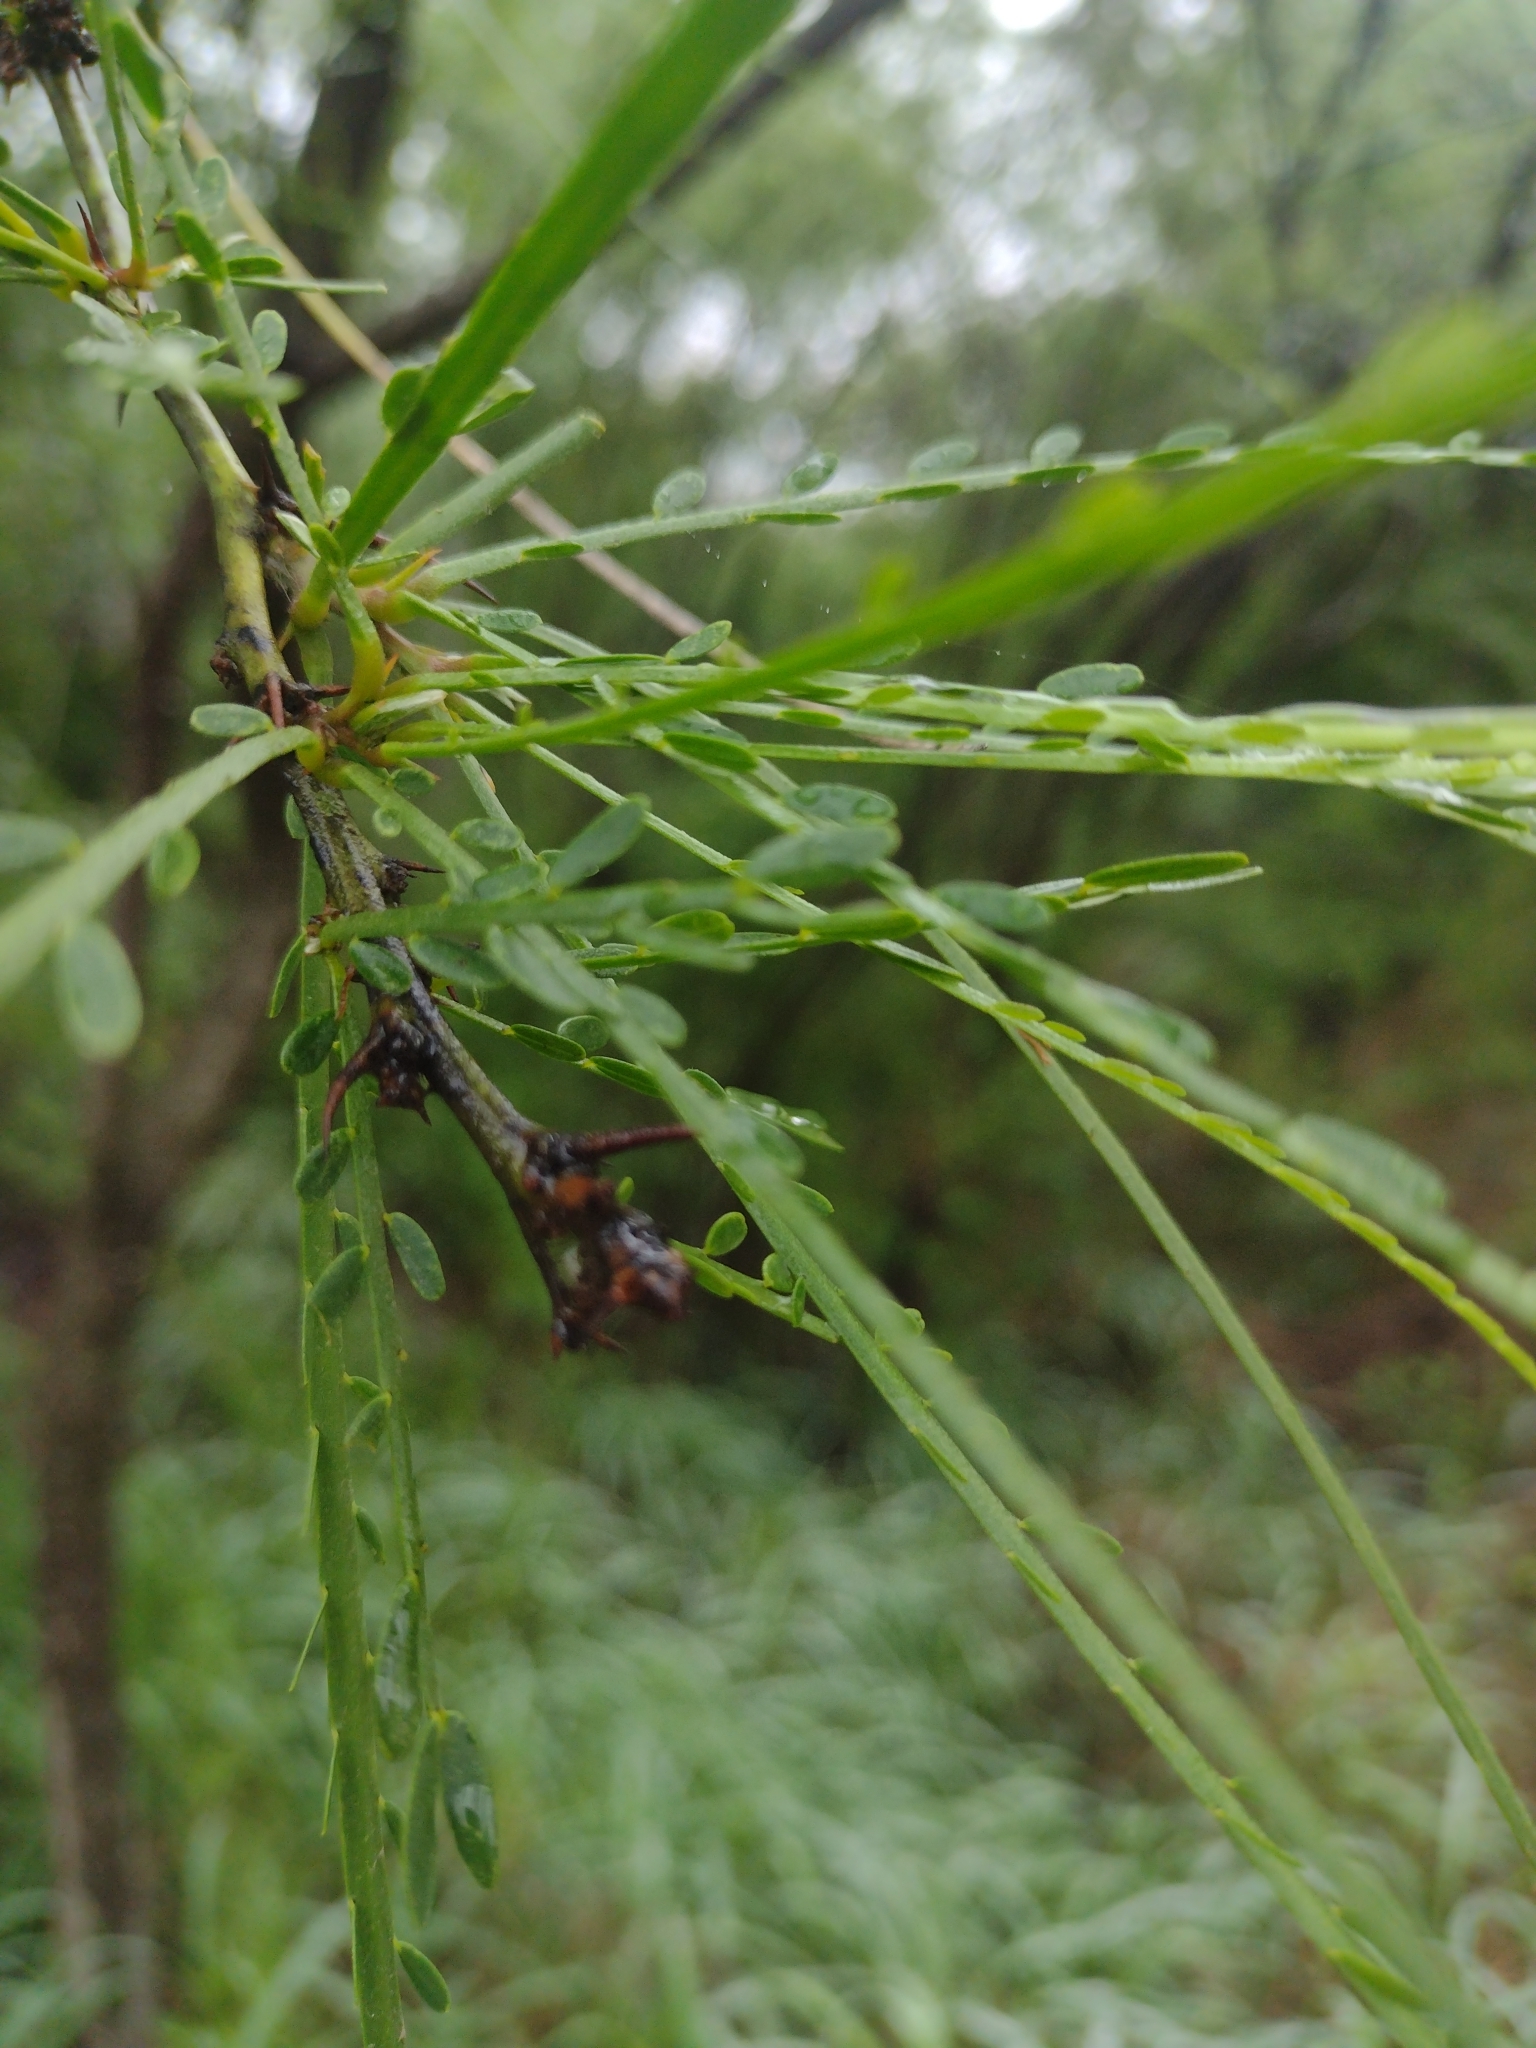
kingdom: Plantae
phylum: Tracheophyta
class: Magnoliopsida
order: Fabales
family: Fabaceae
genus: Parkinsonia
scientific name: Parkinsonia aculeata
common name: Jerusalem thorn
